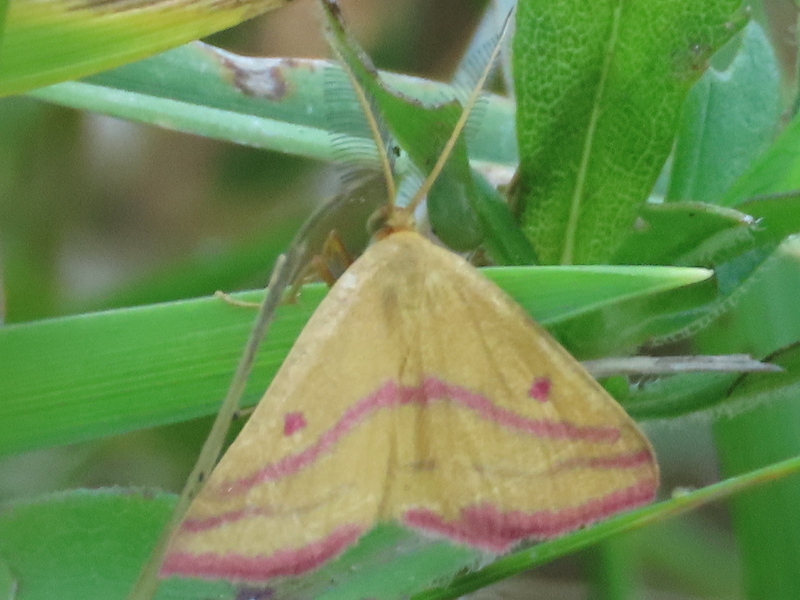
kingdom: Animalia
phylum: Arthropoda
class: Insecta
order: Lepidoptera
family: Geometridae
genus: Haematopis
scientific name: Haematopis grataria
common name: Chickweed geometer
